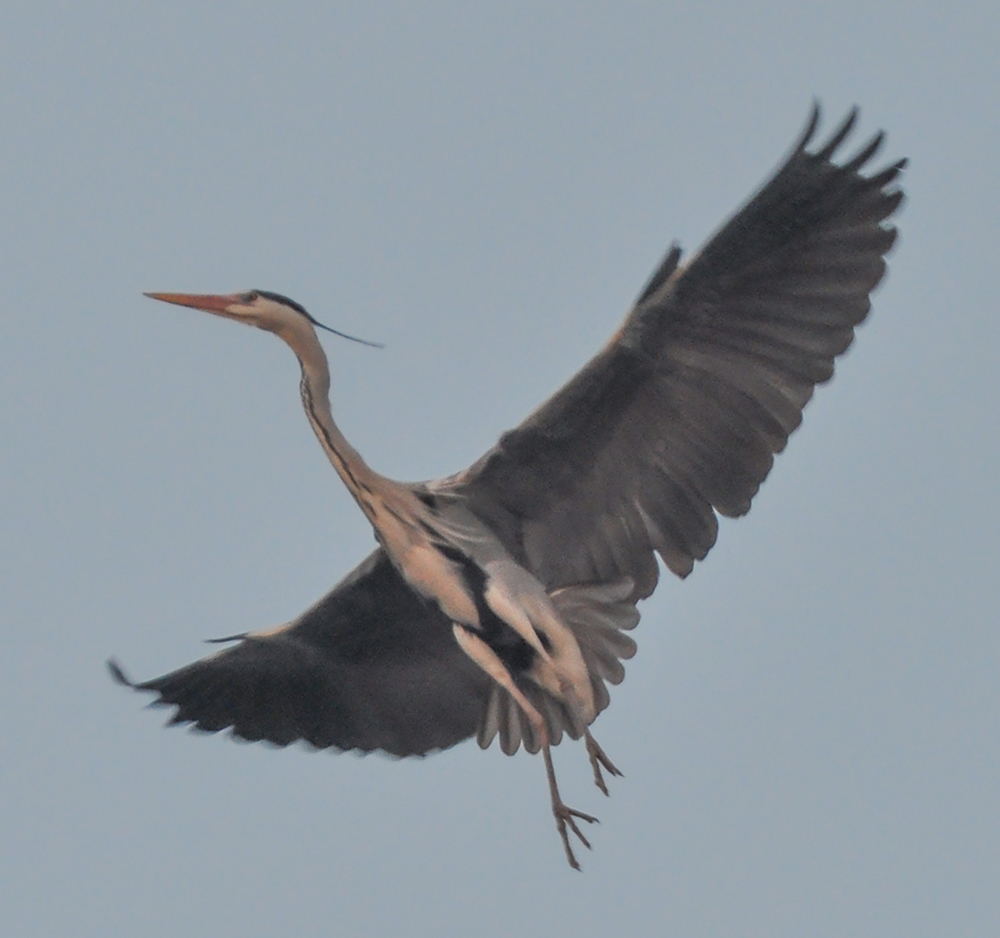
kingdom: Animalia
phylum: Chordata
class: Aves
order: Pelecaniformes
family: Ardeidae
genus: Ardea
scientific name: Ardea cinerea
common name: Grey heron
